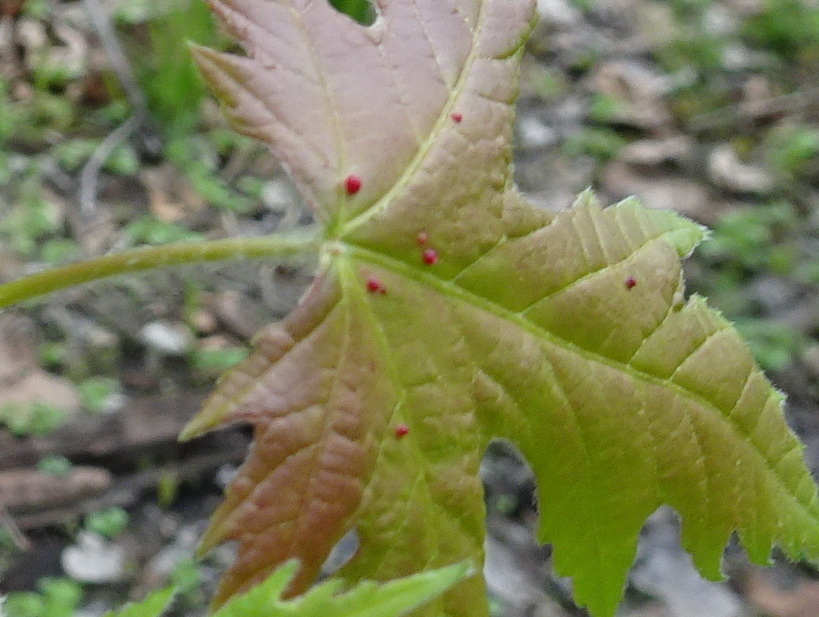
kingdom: Animalia
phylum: Arthropoda
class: Arachnida
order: Trombidiformes
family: Eriophyidae
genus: Vasates
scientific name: Vasates quadripedes
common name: Maple bladder gall mite
